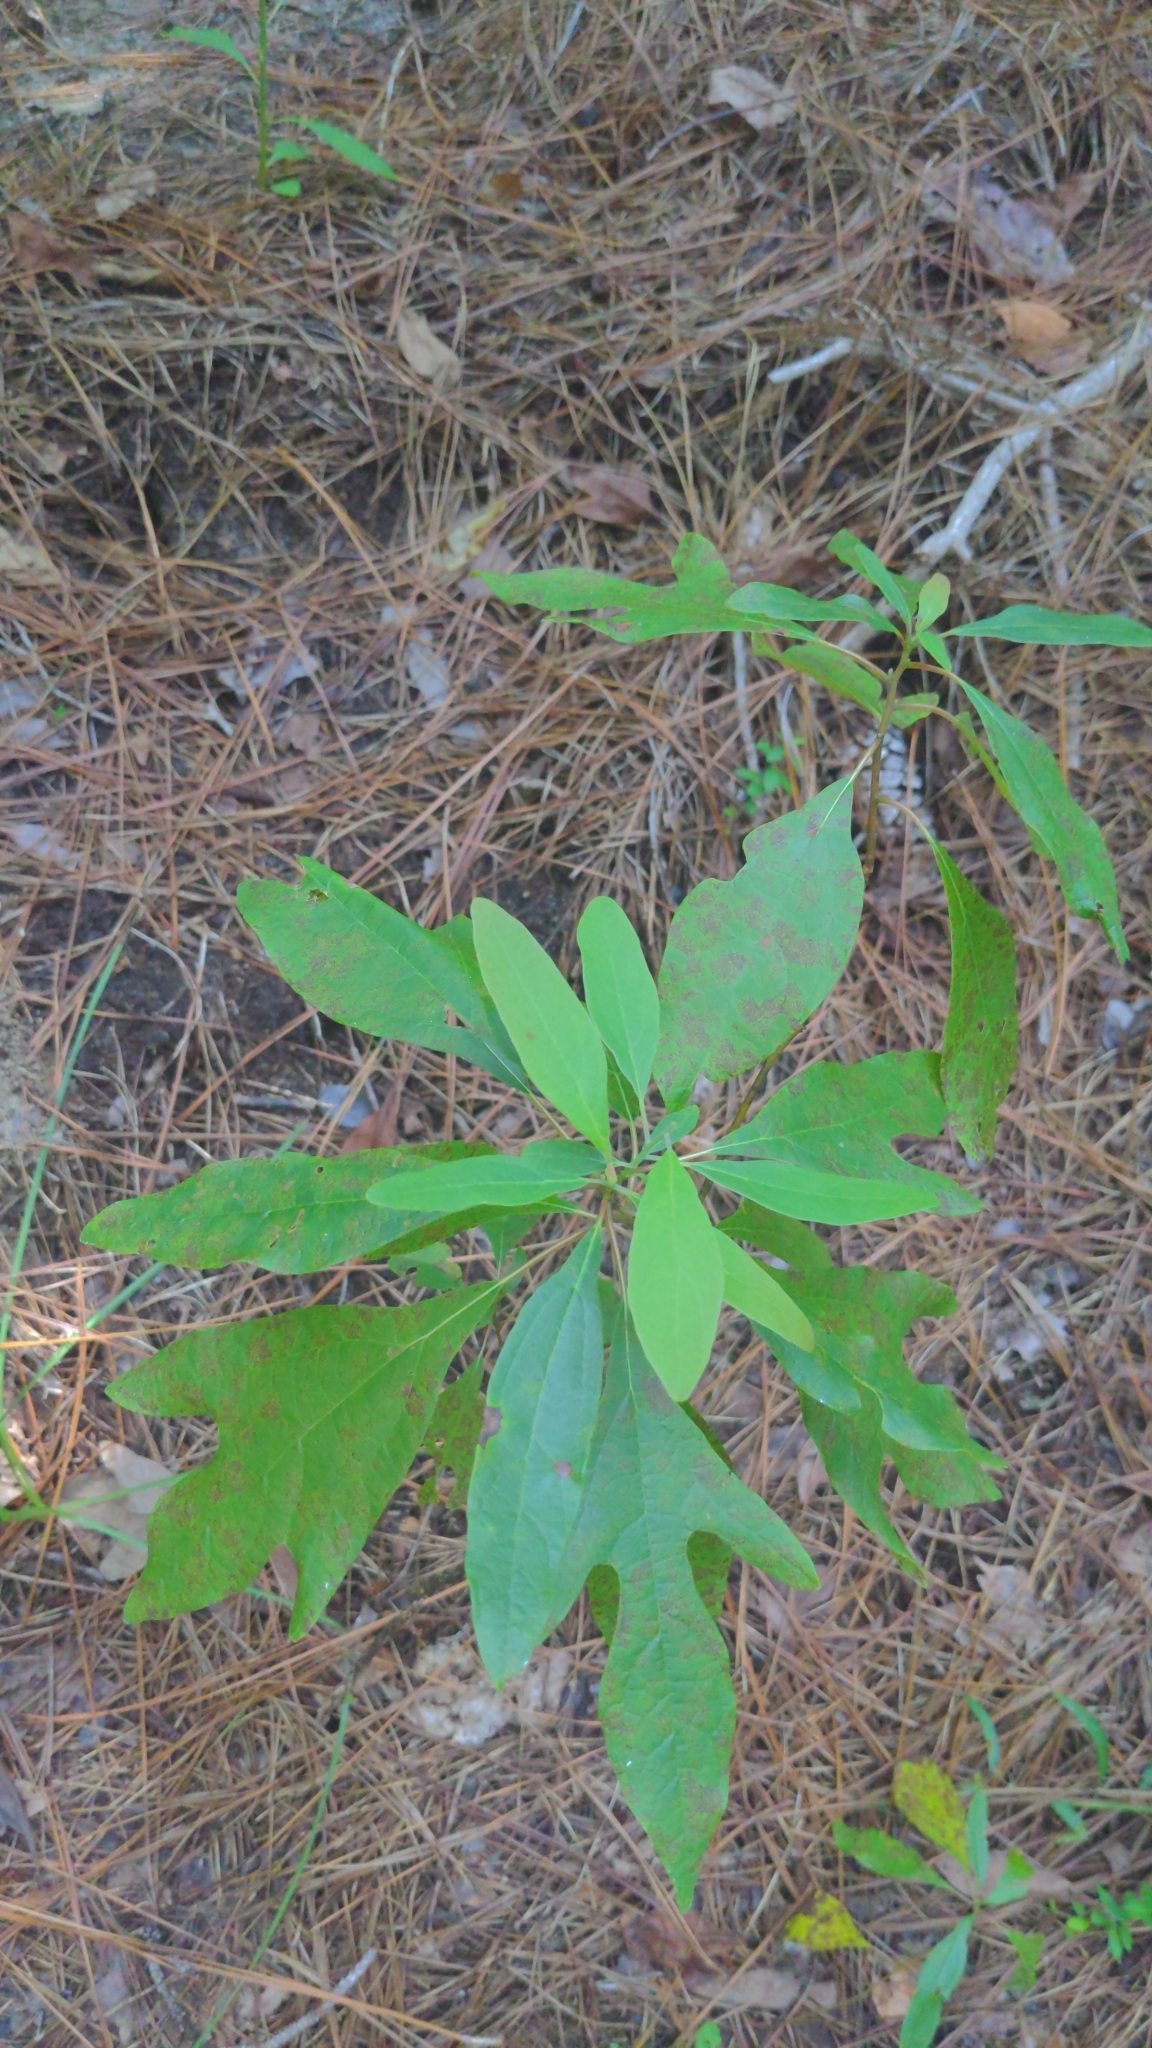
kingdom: Plantae
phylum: Tracheophyta
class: Magnoliopsida
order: Laurales
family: Lauraceae
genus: Sassafras
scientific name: Sassafras albidum
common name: Sassafras
